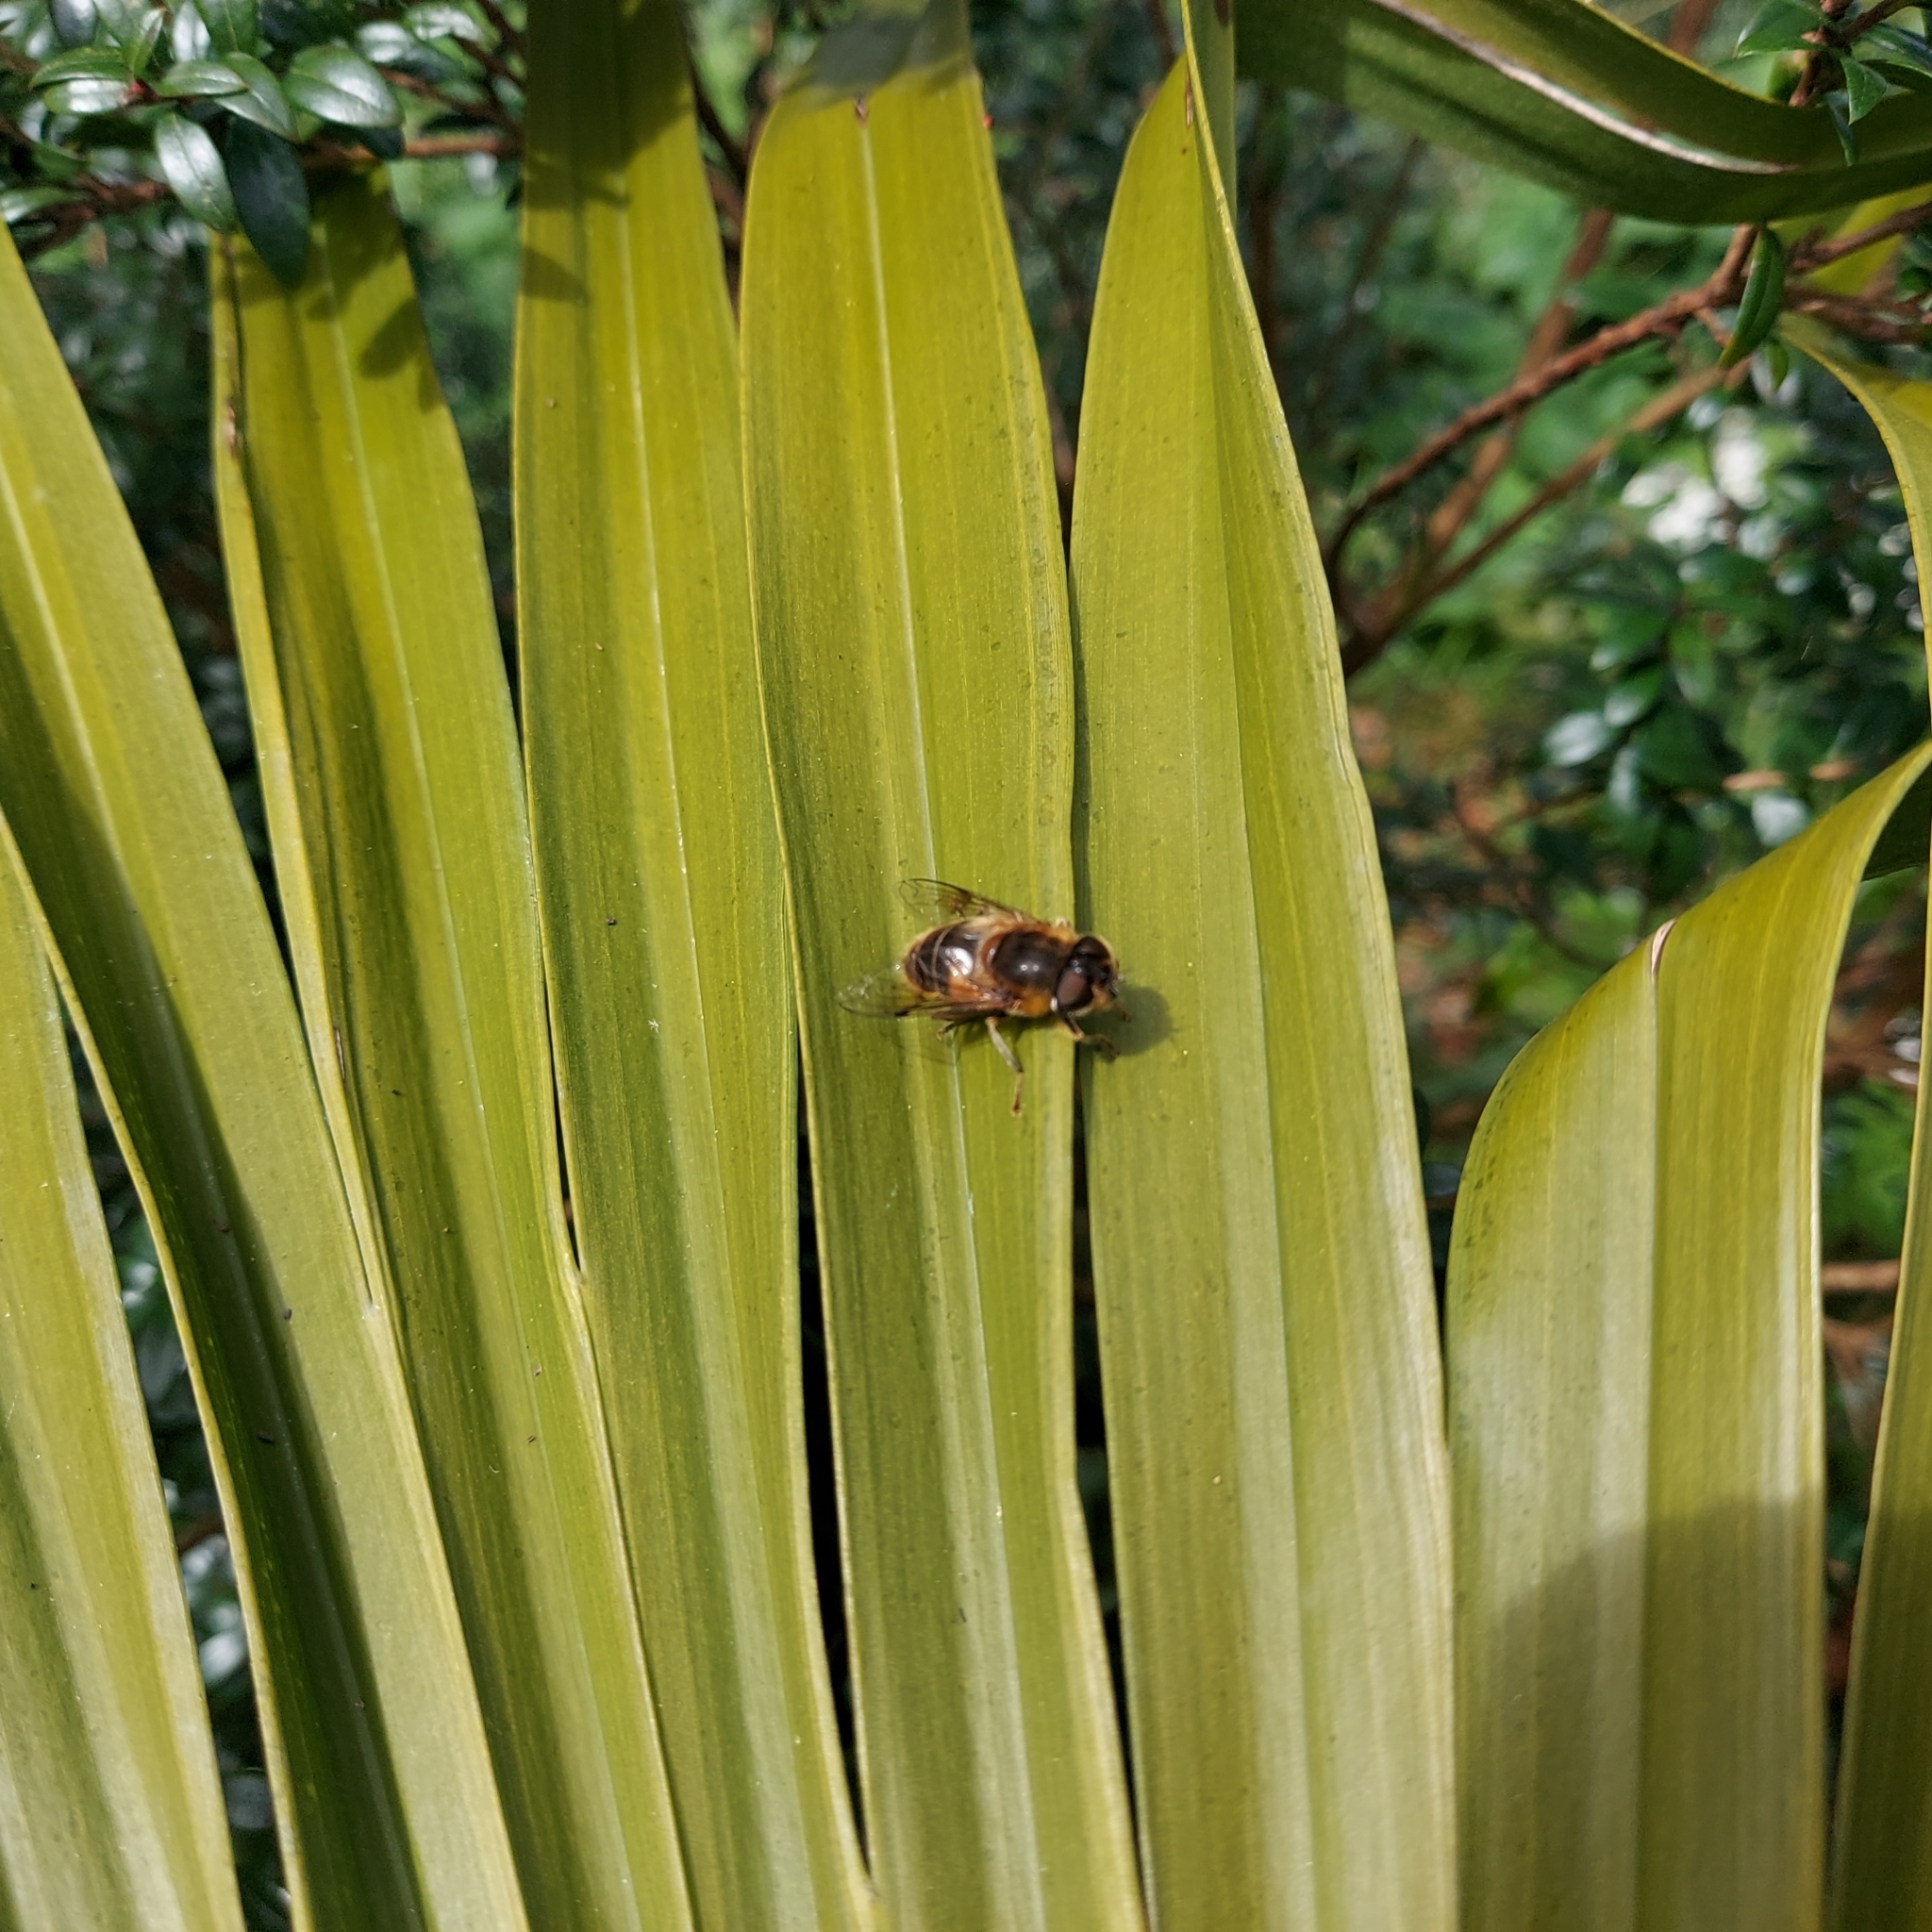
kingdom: Animalia
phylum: Arthropoda
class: Insecta
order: Diptera
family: Syrphidae
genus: Eristalis
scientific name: Eristalis pertinax
